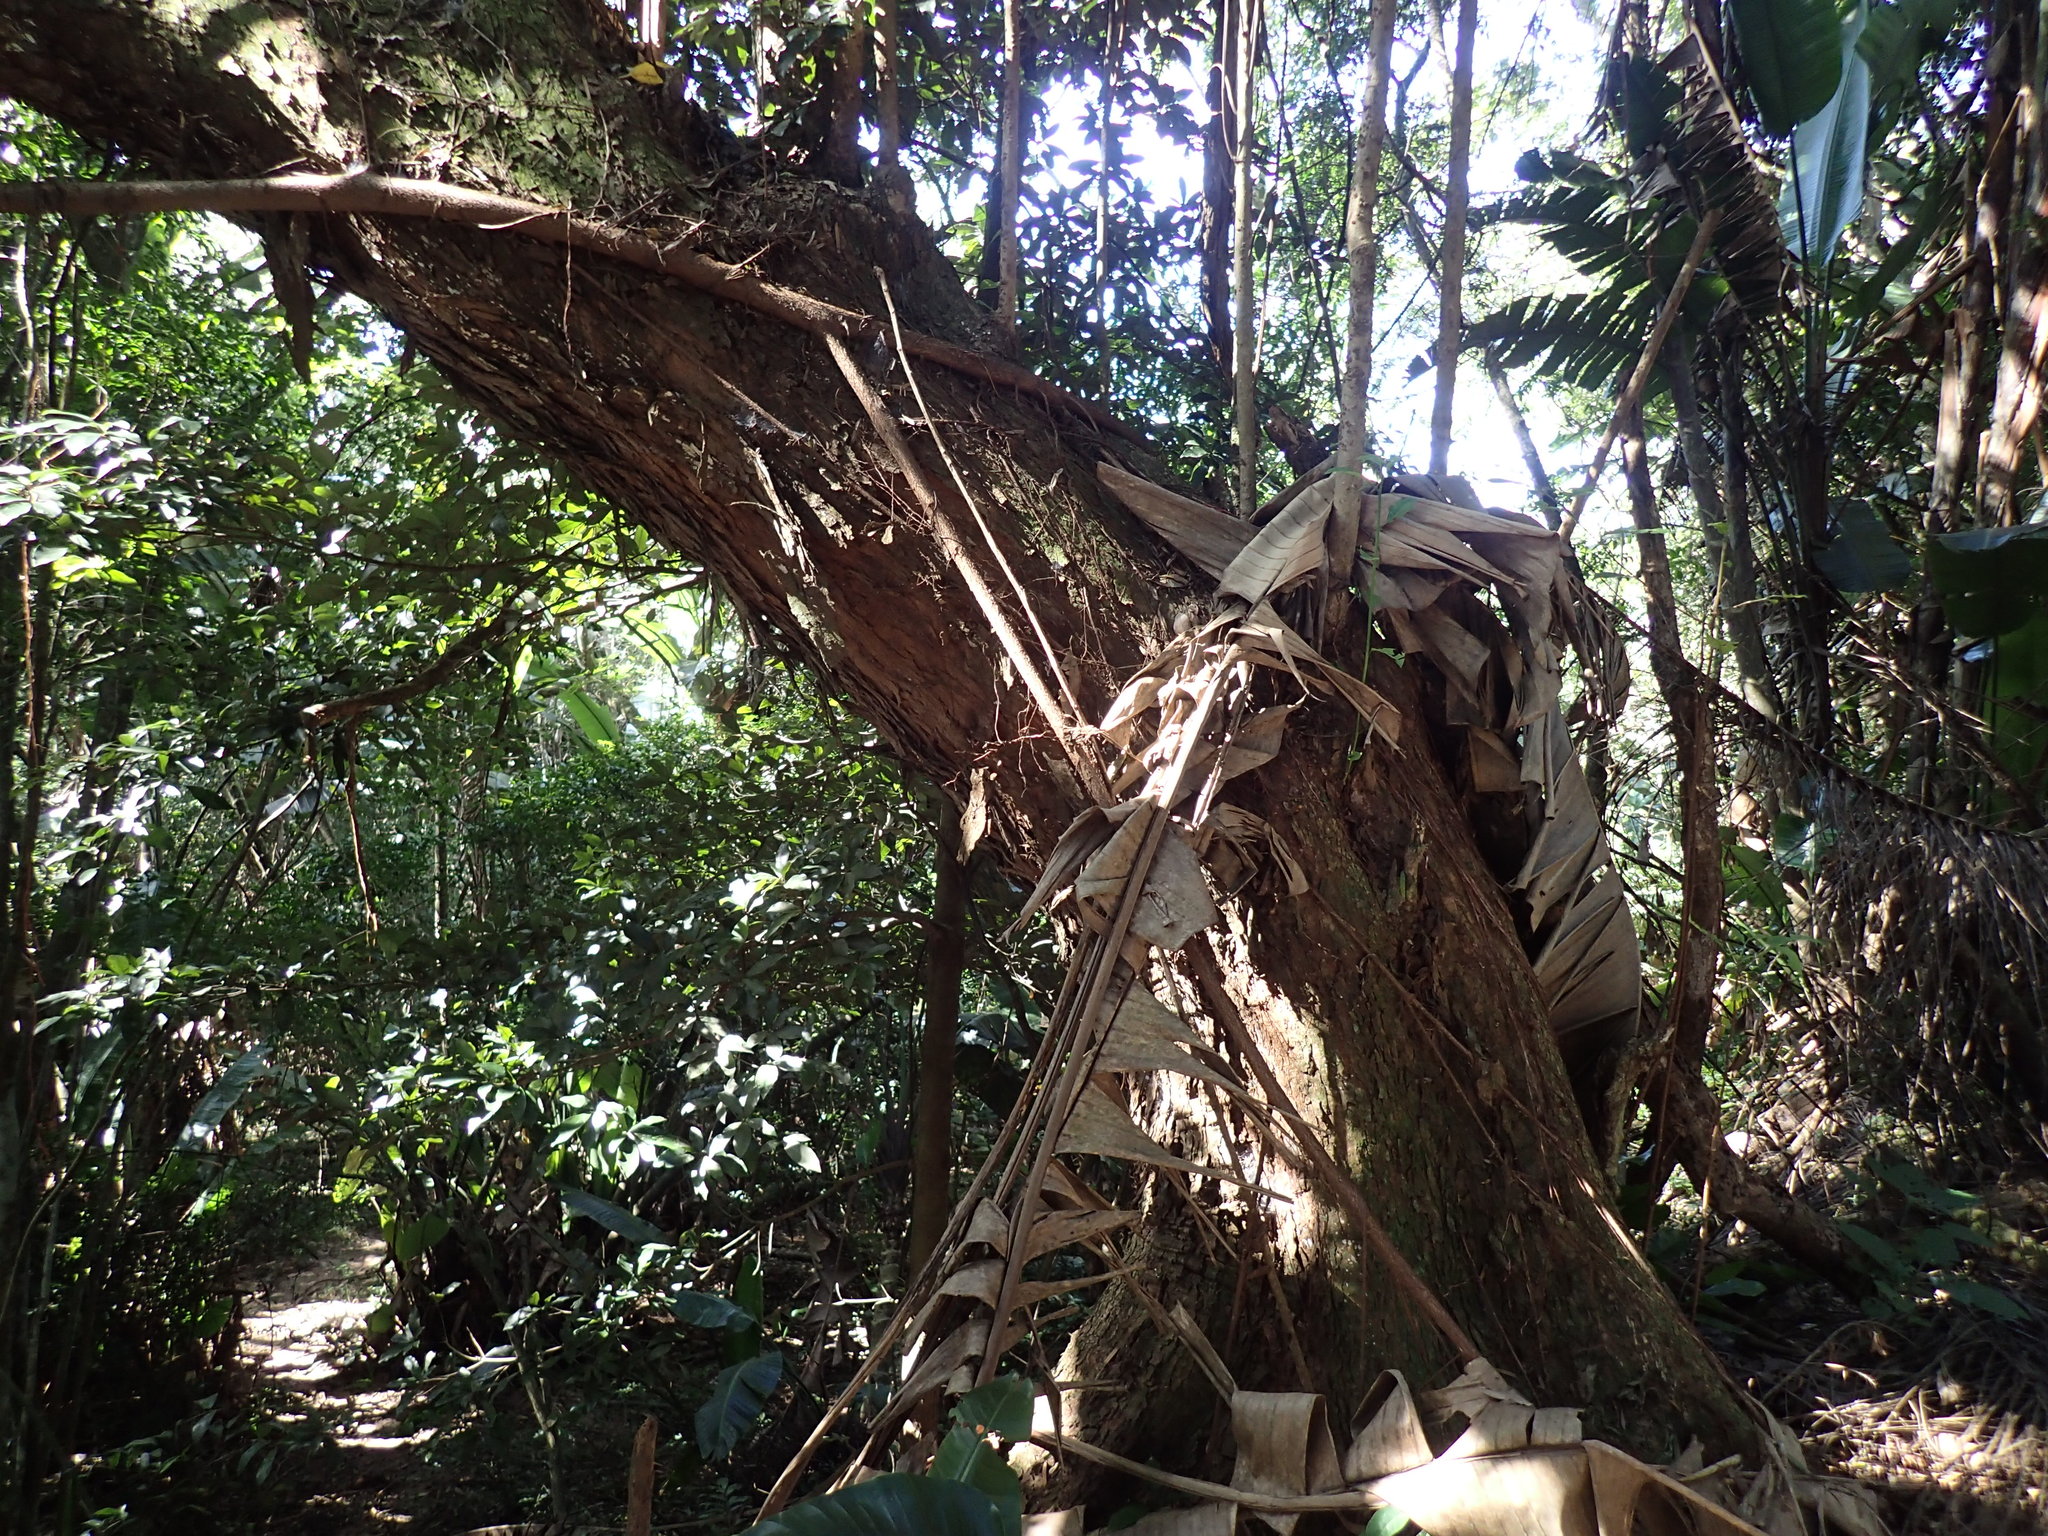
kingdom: Plantae
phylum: Tracheophyta
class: Magnoliopsida
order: Ericales
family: Sapotaceae
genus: Englerophytum
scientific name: Englerophytum natalense
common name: Silver-leaved milkplum
